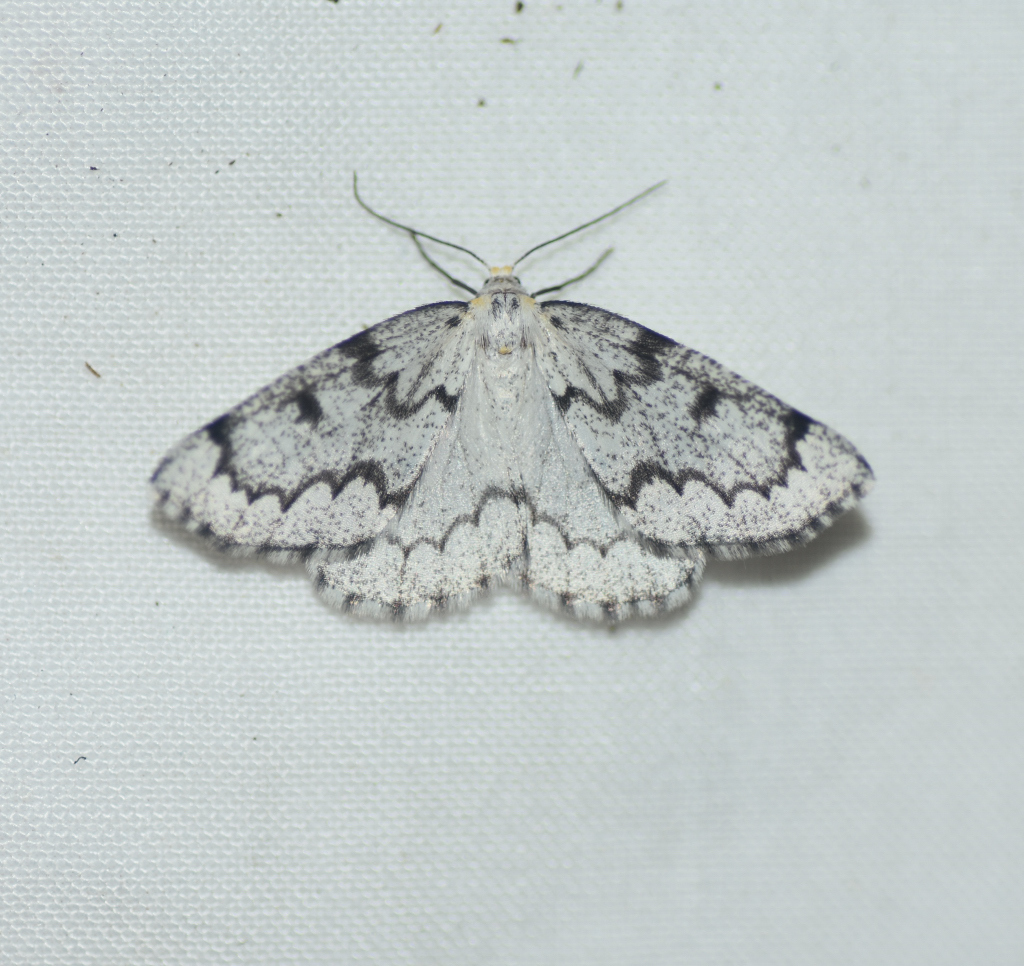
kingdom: Animalia
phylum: Arthropoda
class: Insecta
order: Lepidoptera
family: Geometridae
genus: Nepytia
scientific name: Nepytia canosaria
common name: False hemlock looper
